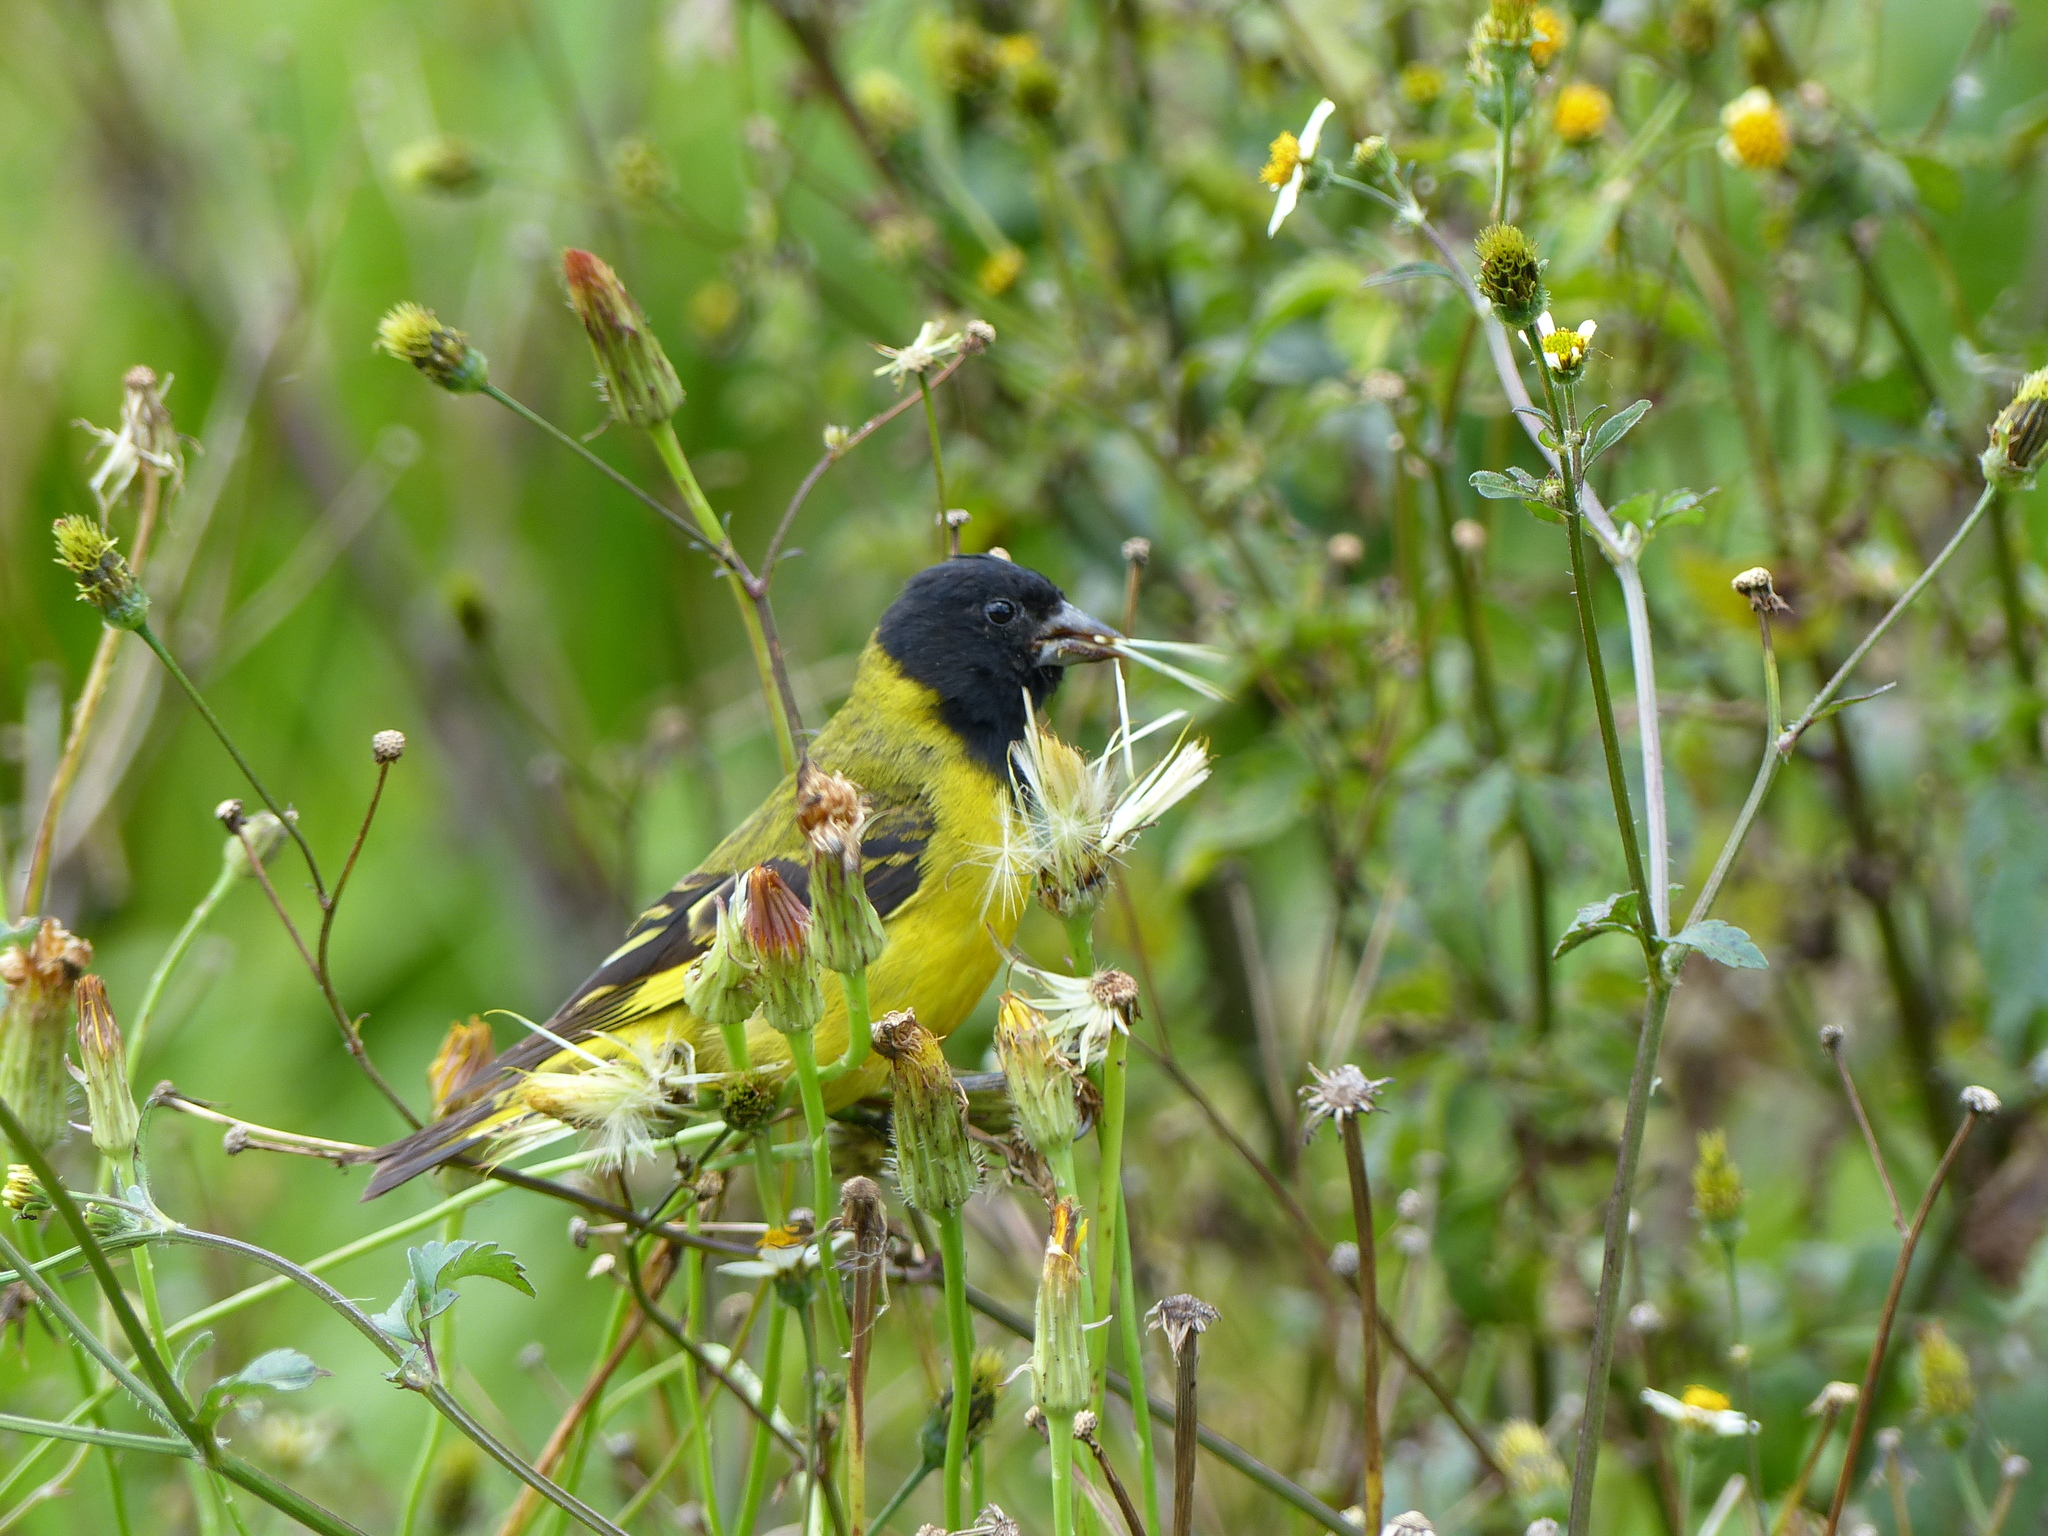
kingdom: Animalia
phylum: Chordata
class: Aves
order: Passeriformes
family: Fringillidae
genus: Spinus
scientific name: Spinus magellanicus
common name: Hooded siskin
